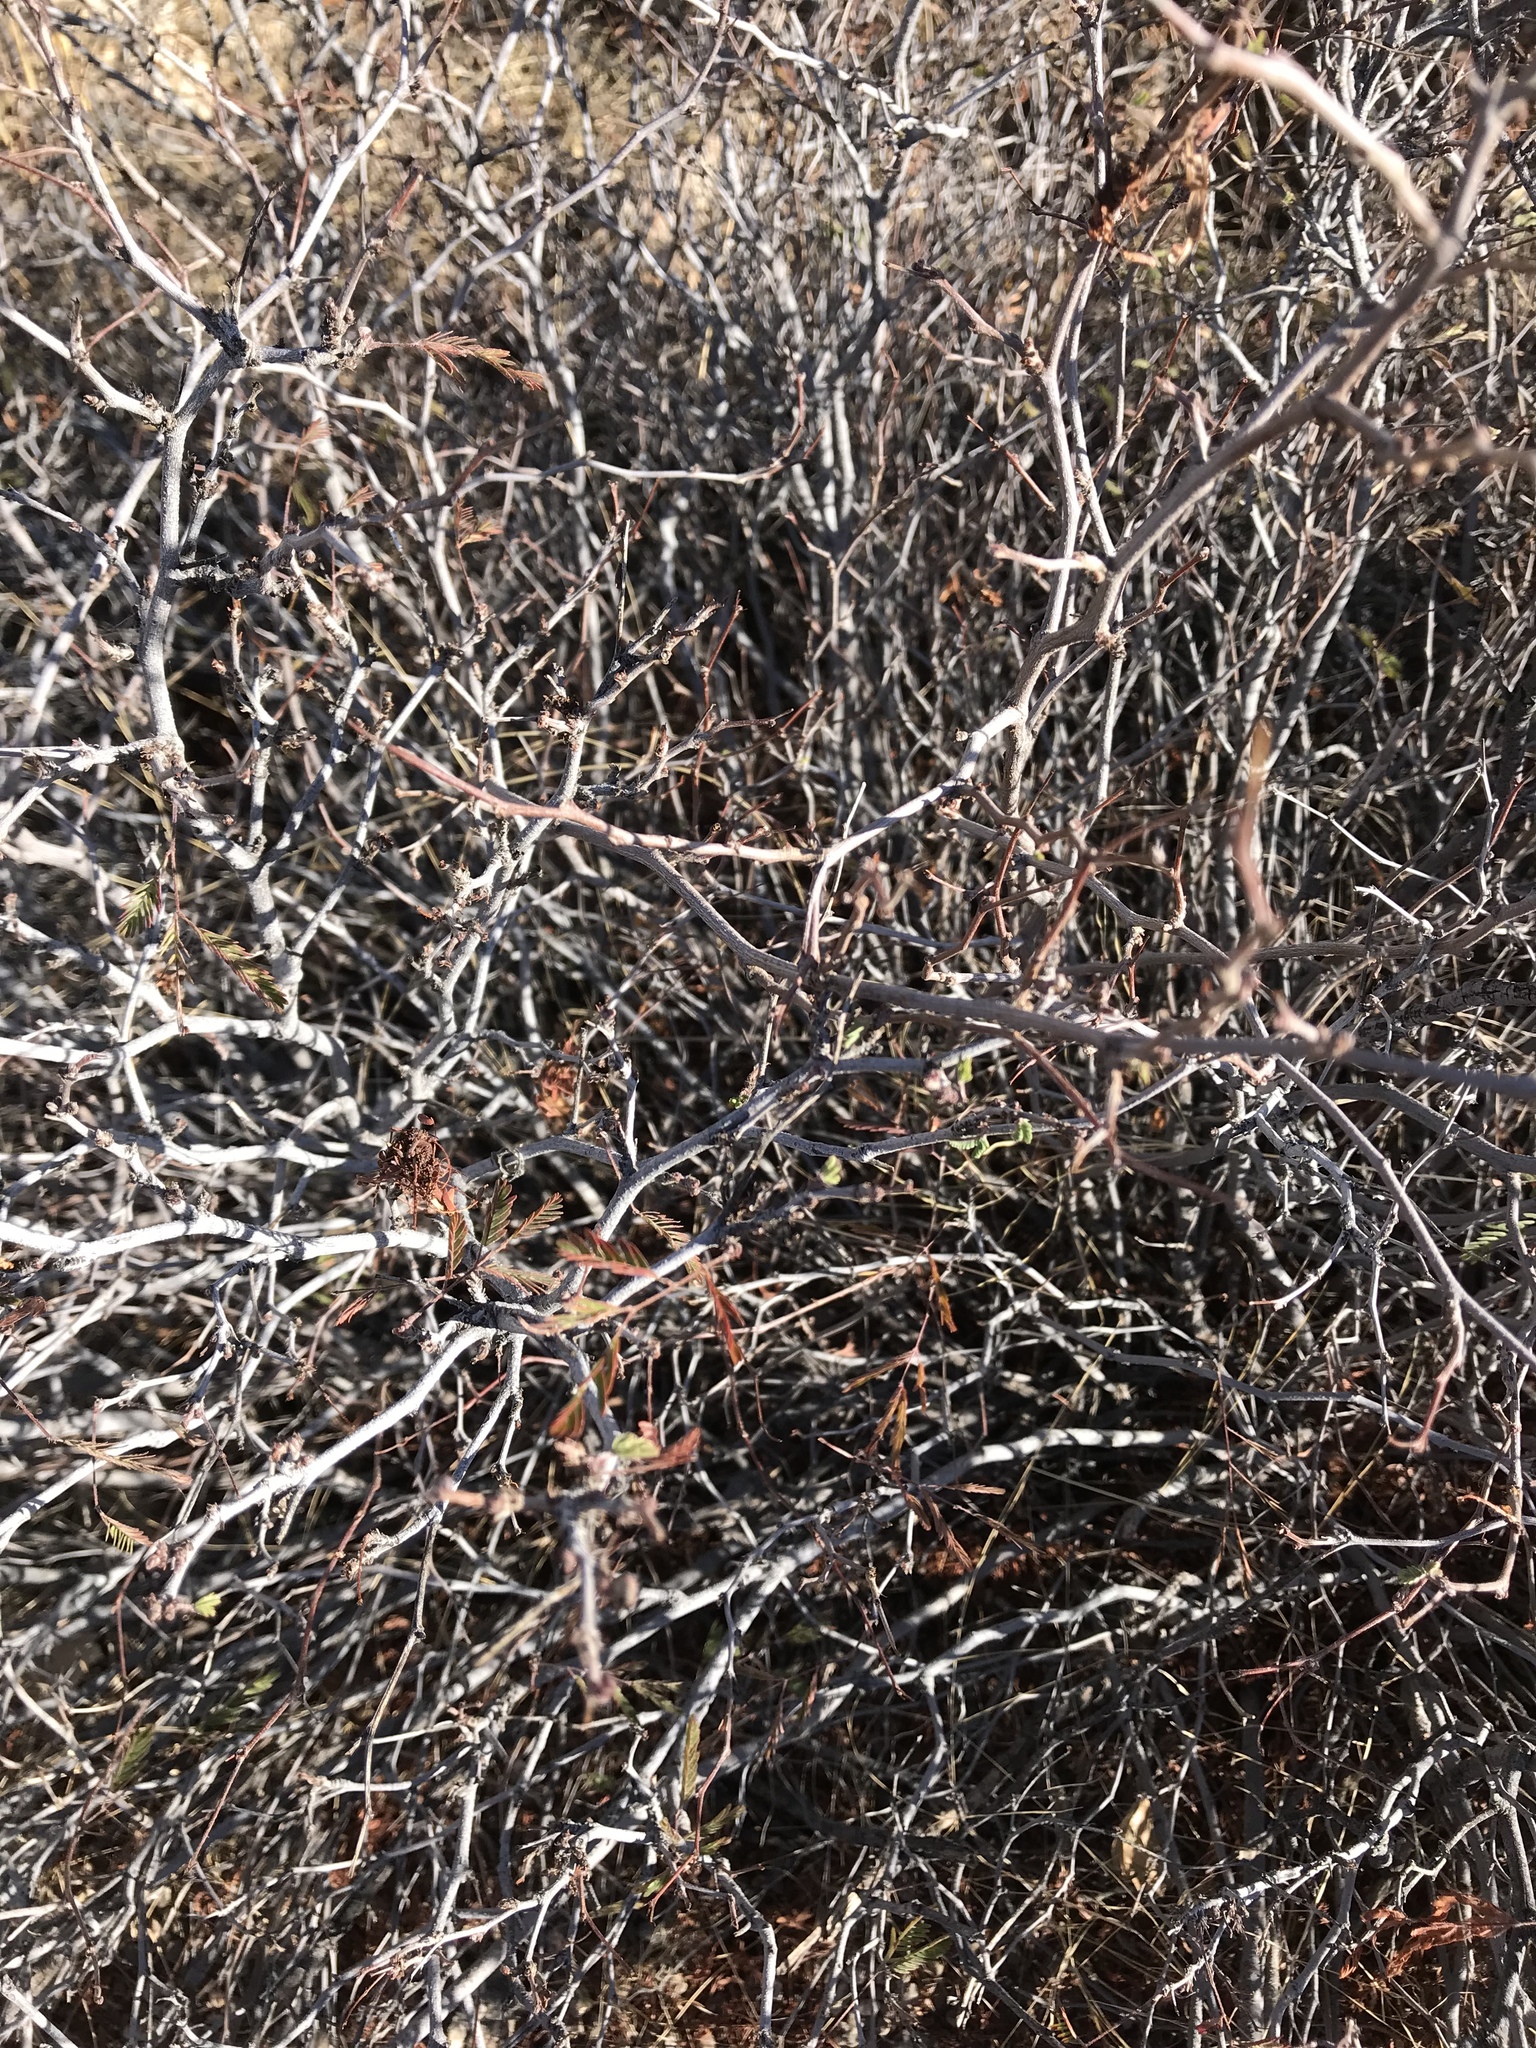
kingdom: Plantae
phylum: Tracheophyta
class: Magnoliopsida
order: Fabales
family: Fabaceae
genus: Calliandra
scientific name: Calliandra eriophylla
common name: Fairy-duster
